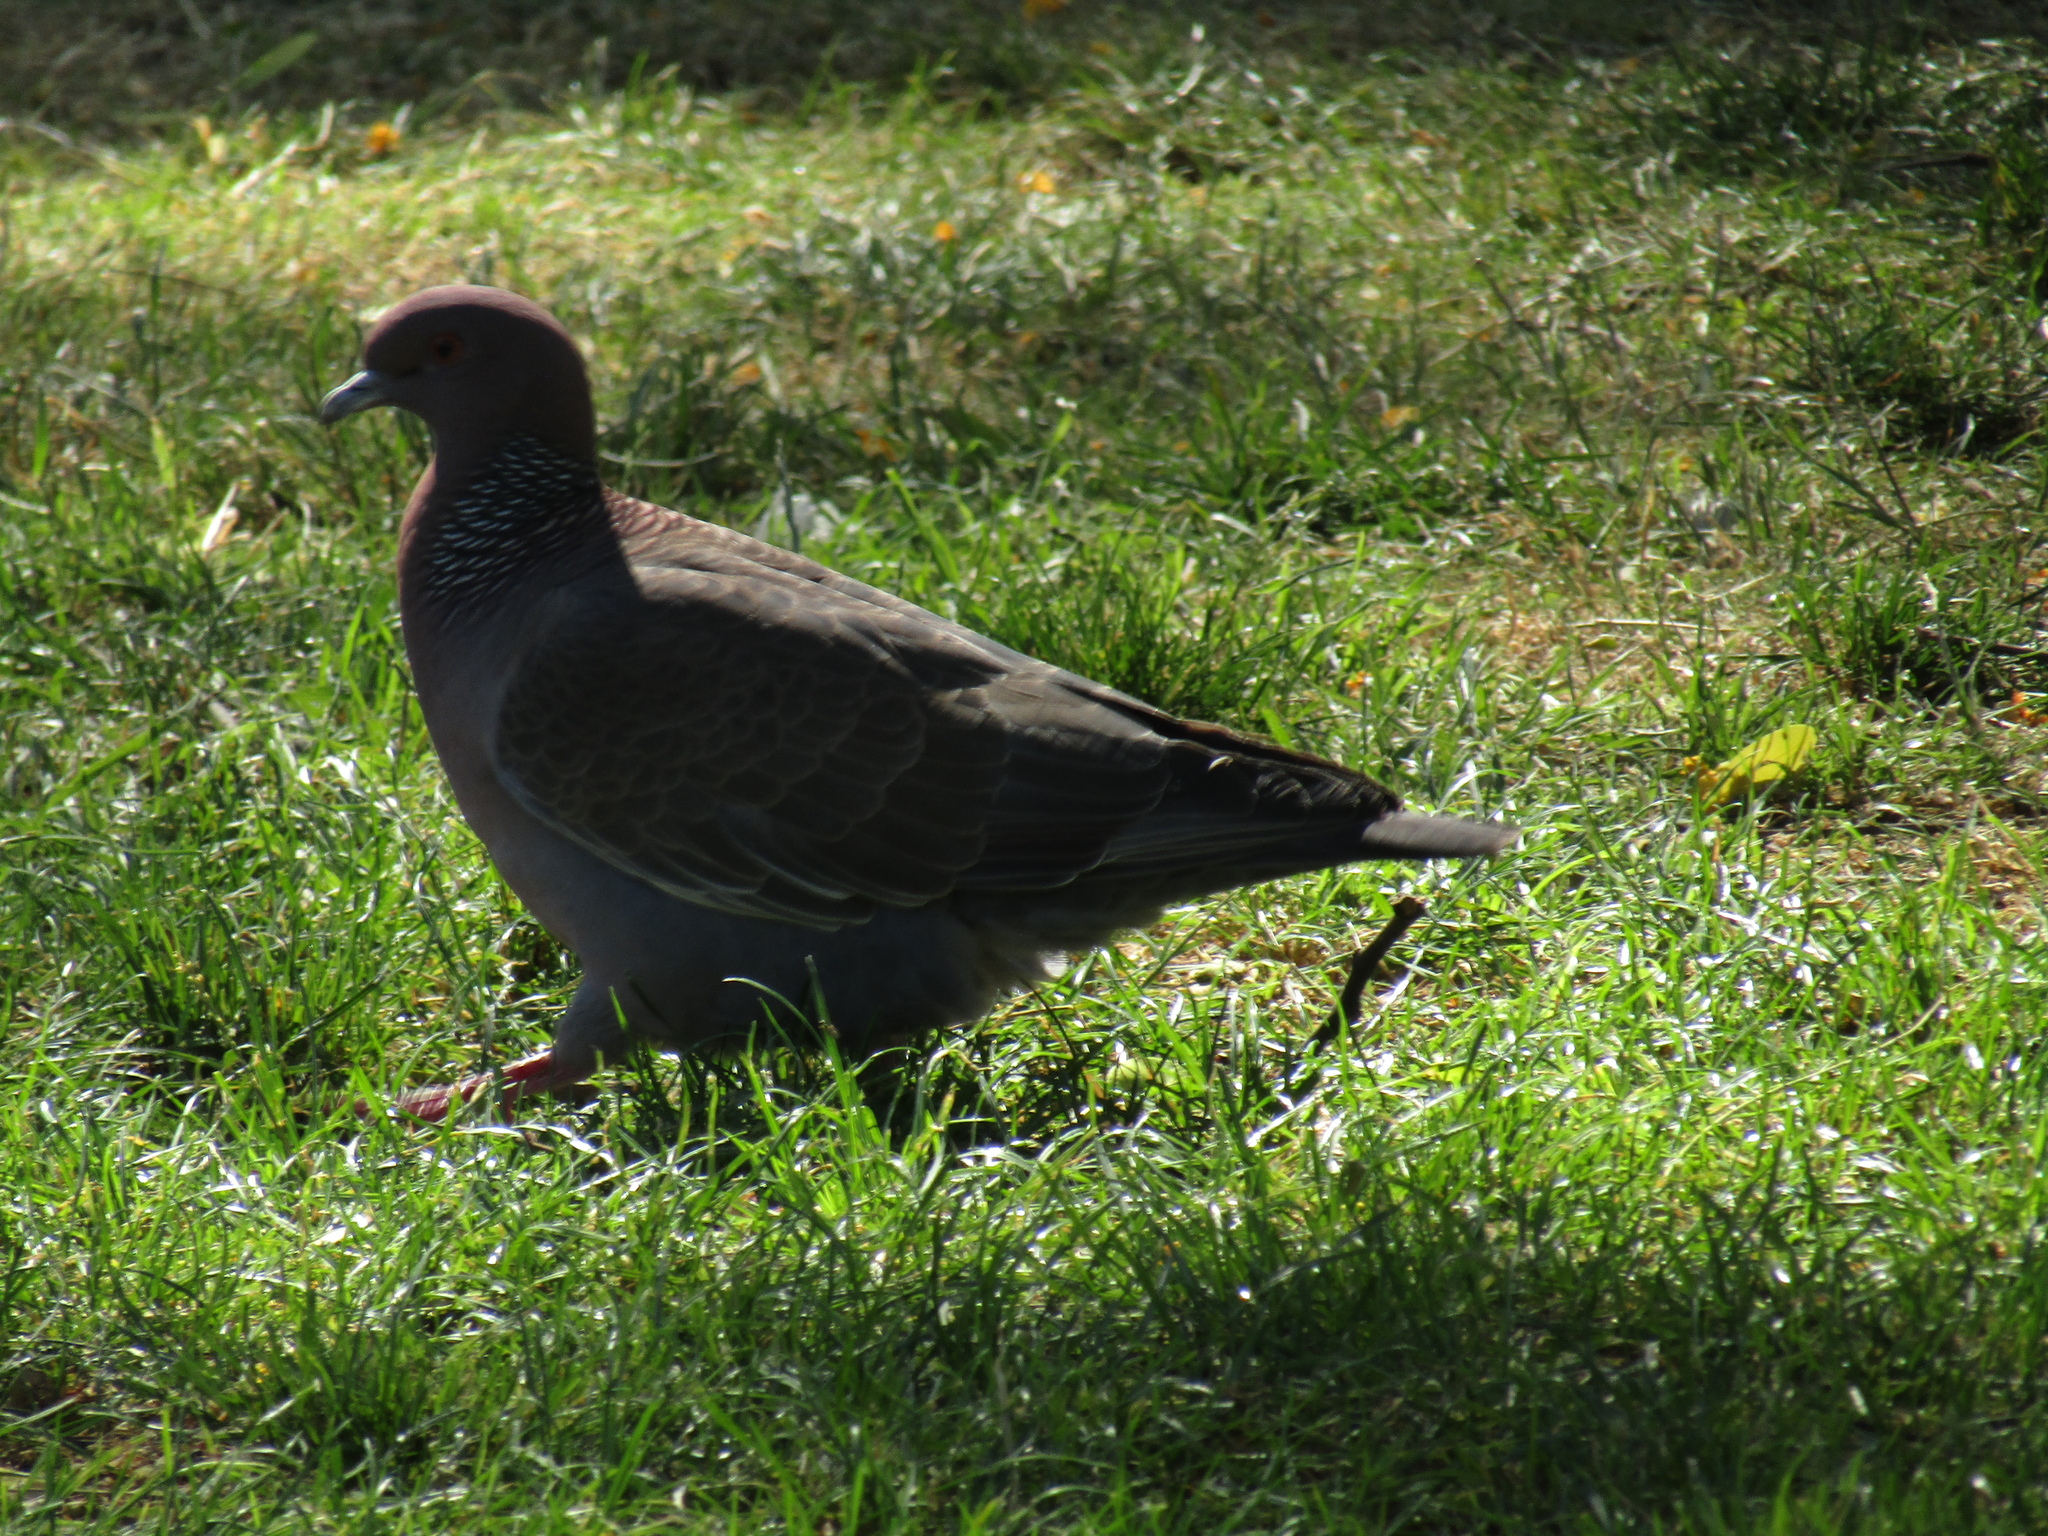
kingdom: Animalia
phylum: Chordata
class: Aves
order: Columbiformes
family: Columbidae
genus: Patagioenas
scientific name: Patagioenas picazuro
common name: Picazuro pigeon
